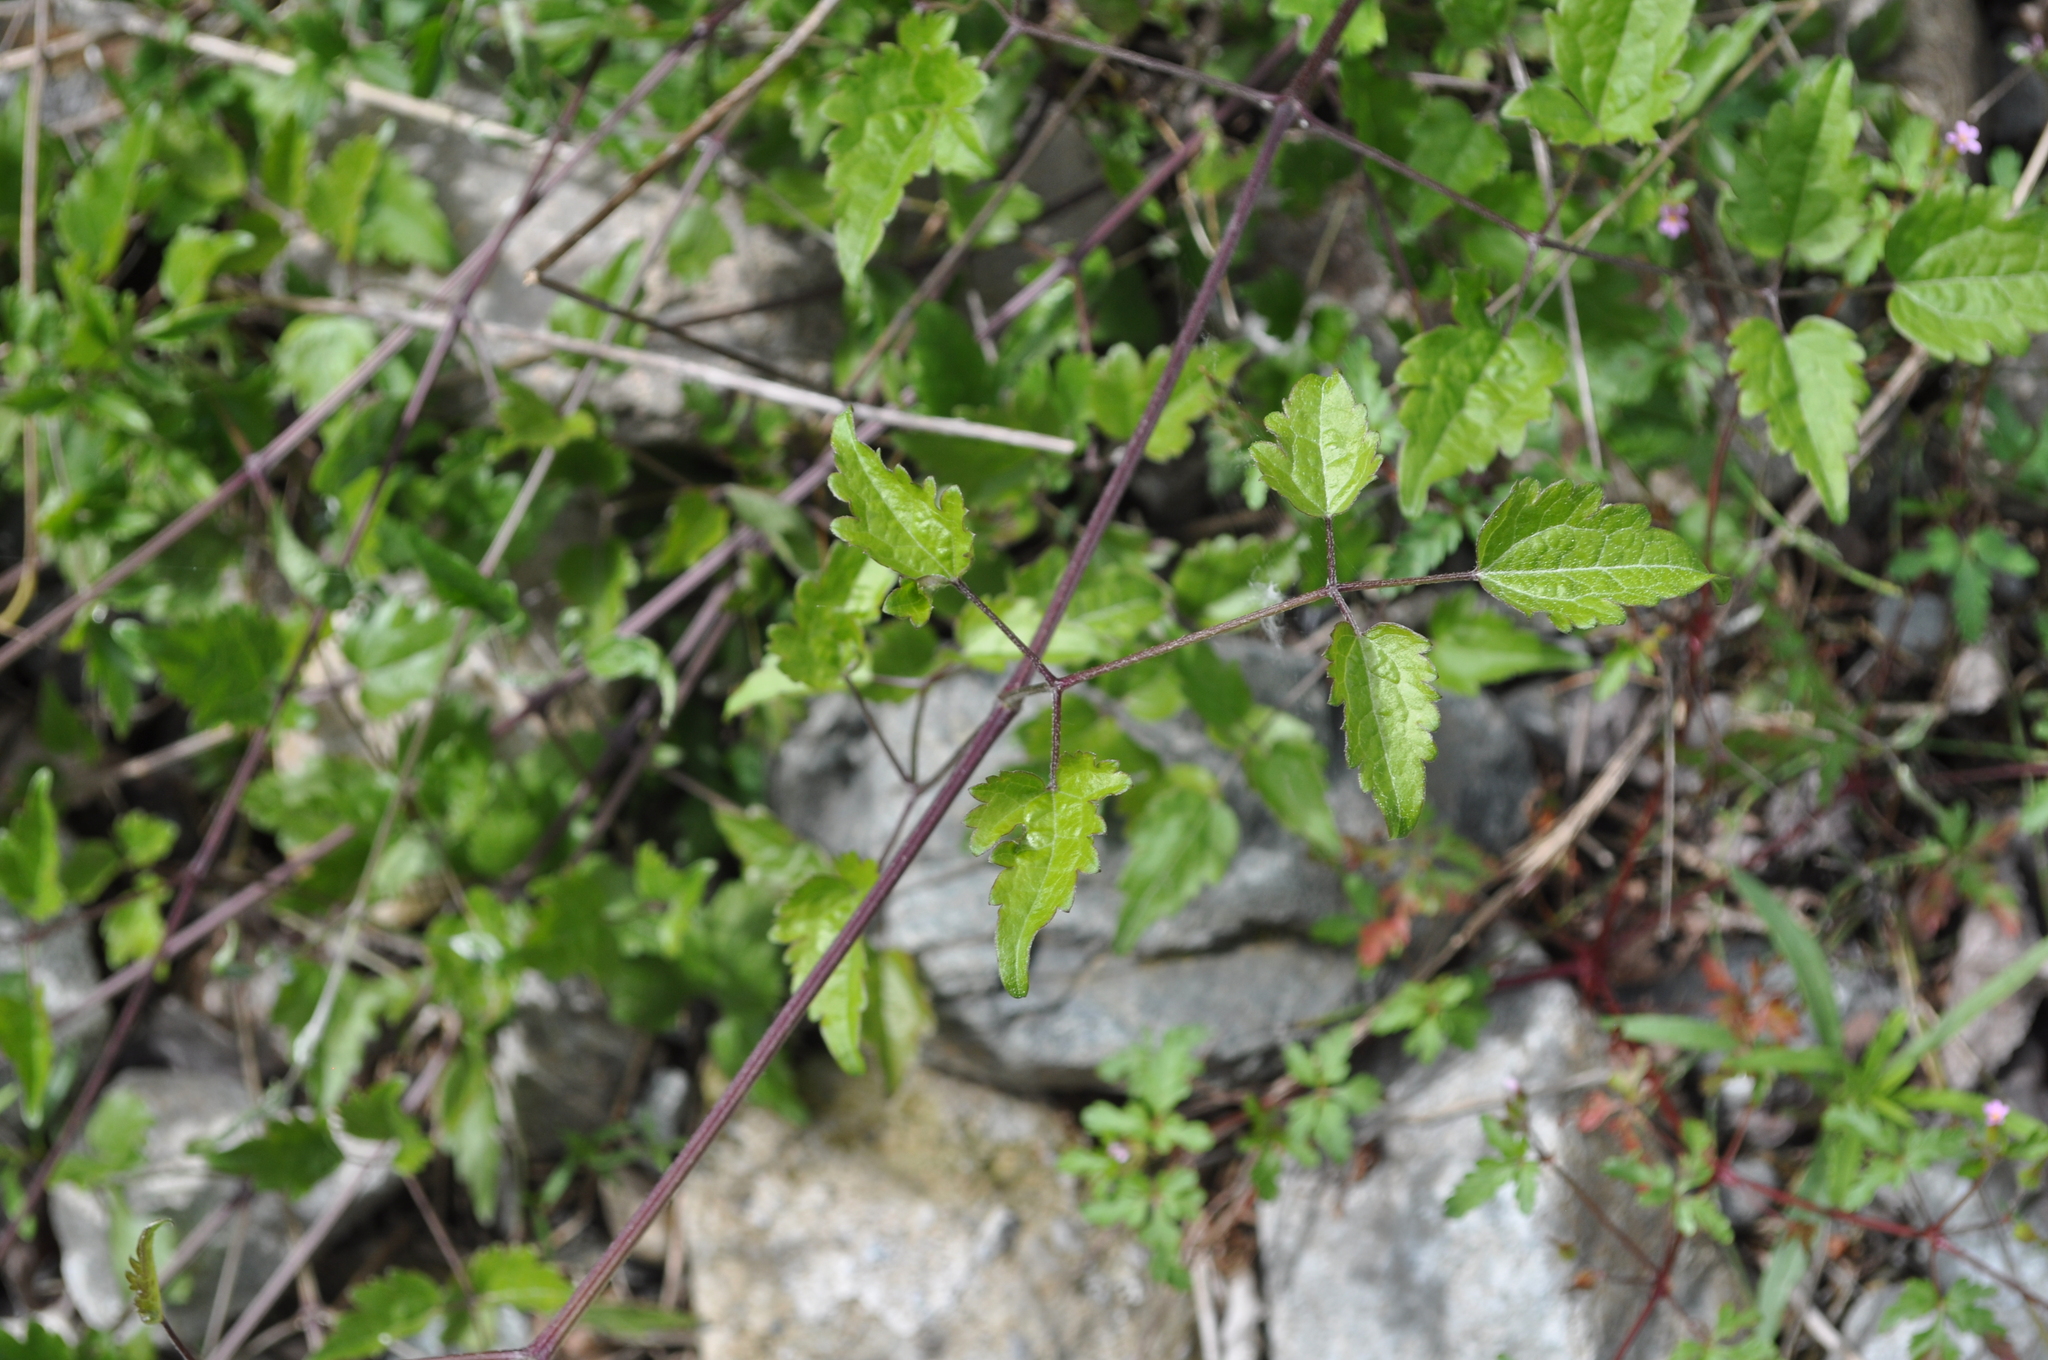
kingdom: Plantae
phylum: Tracheophyta
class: Magnoliopsida
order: Ranunculales
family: Ranunculaceae
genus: Clematis
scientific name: Clematis vitalba
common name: Evergreen clematis
